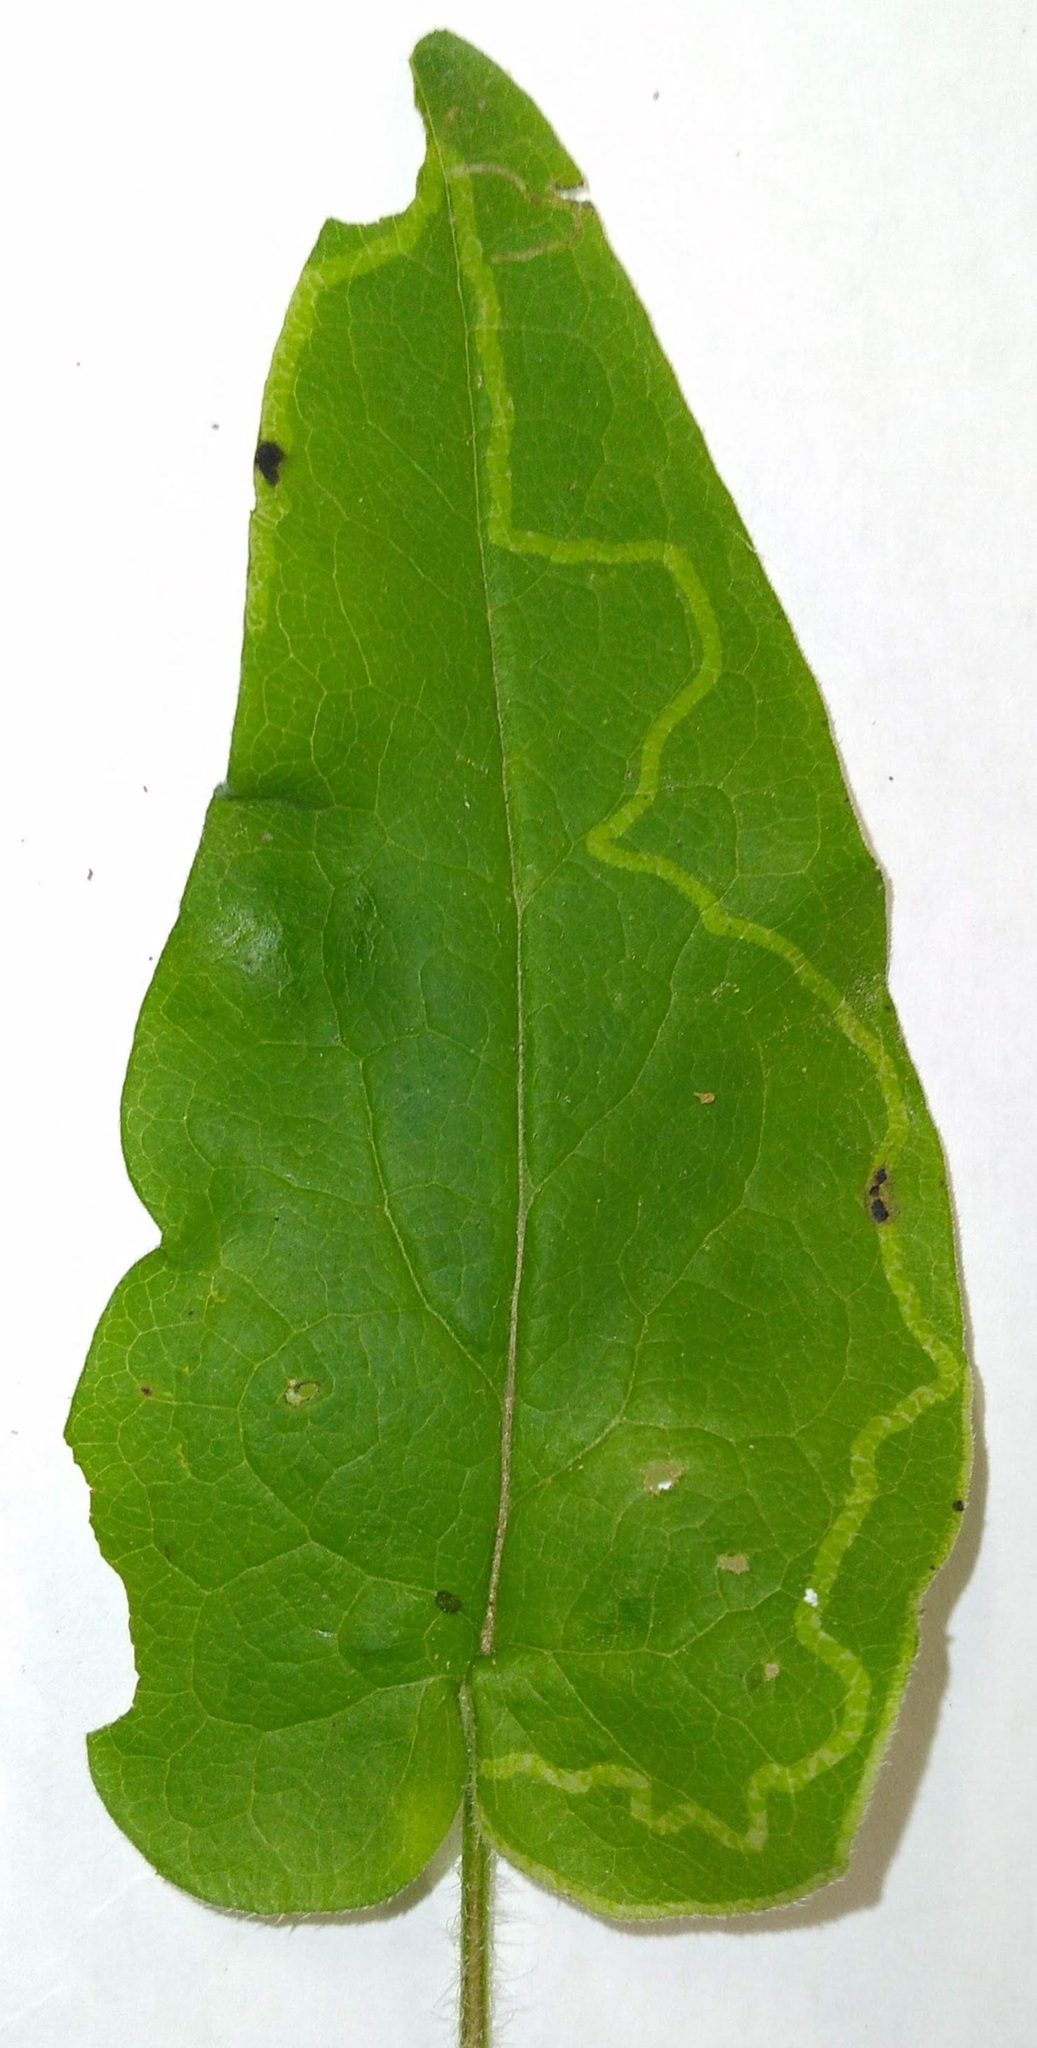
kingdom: Animalia
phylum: Arthropoda
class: Insecta
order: Diptera
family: Agromyzidae
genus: Ophiomyia
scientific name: Ophiomyia parda
